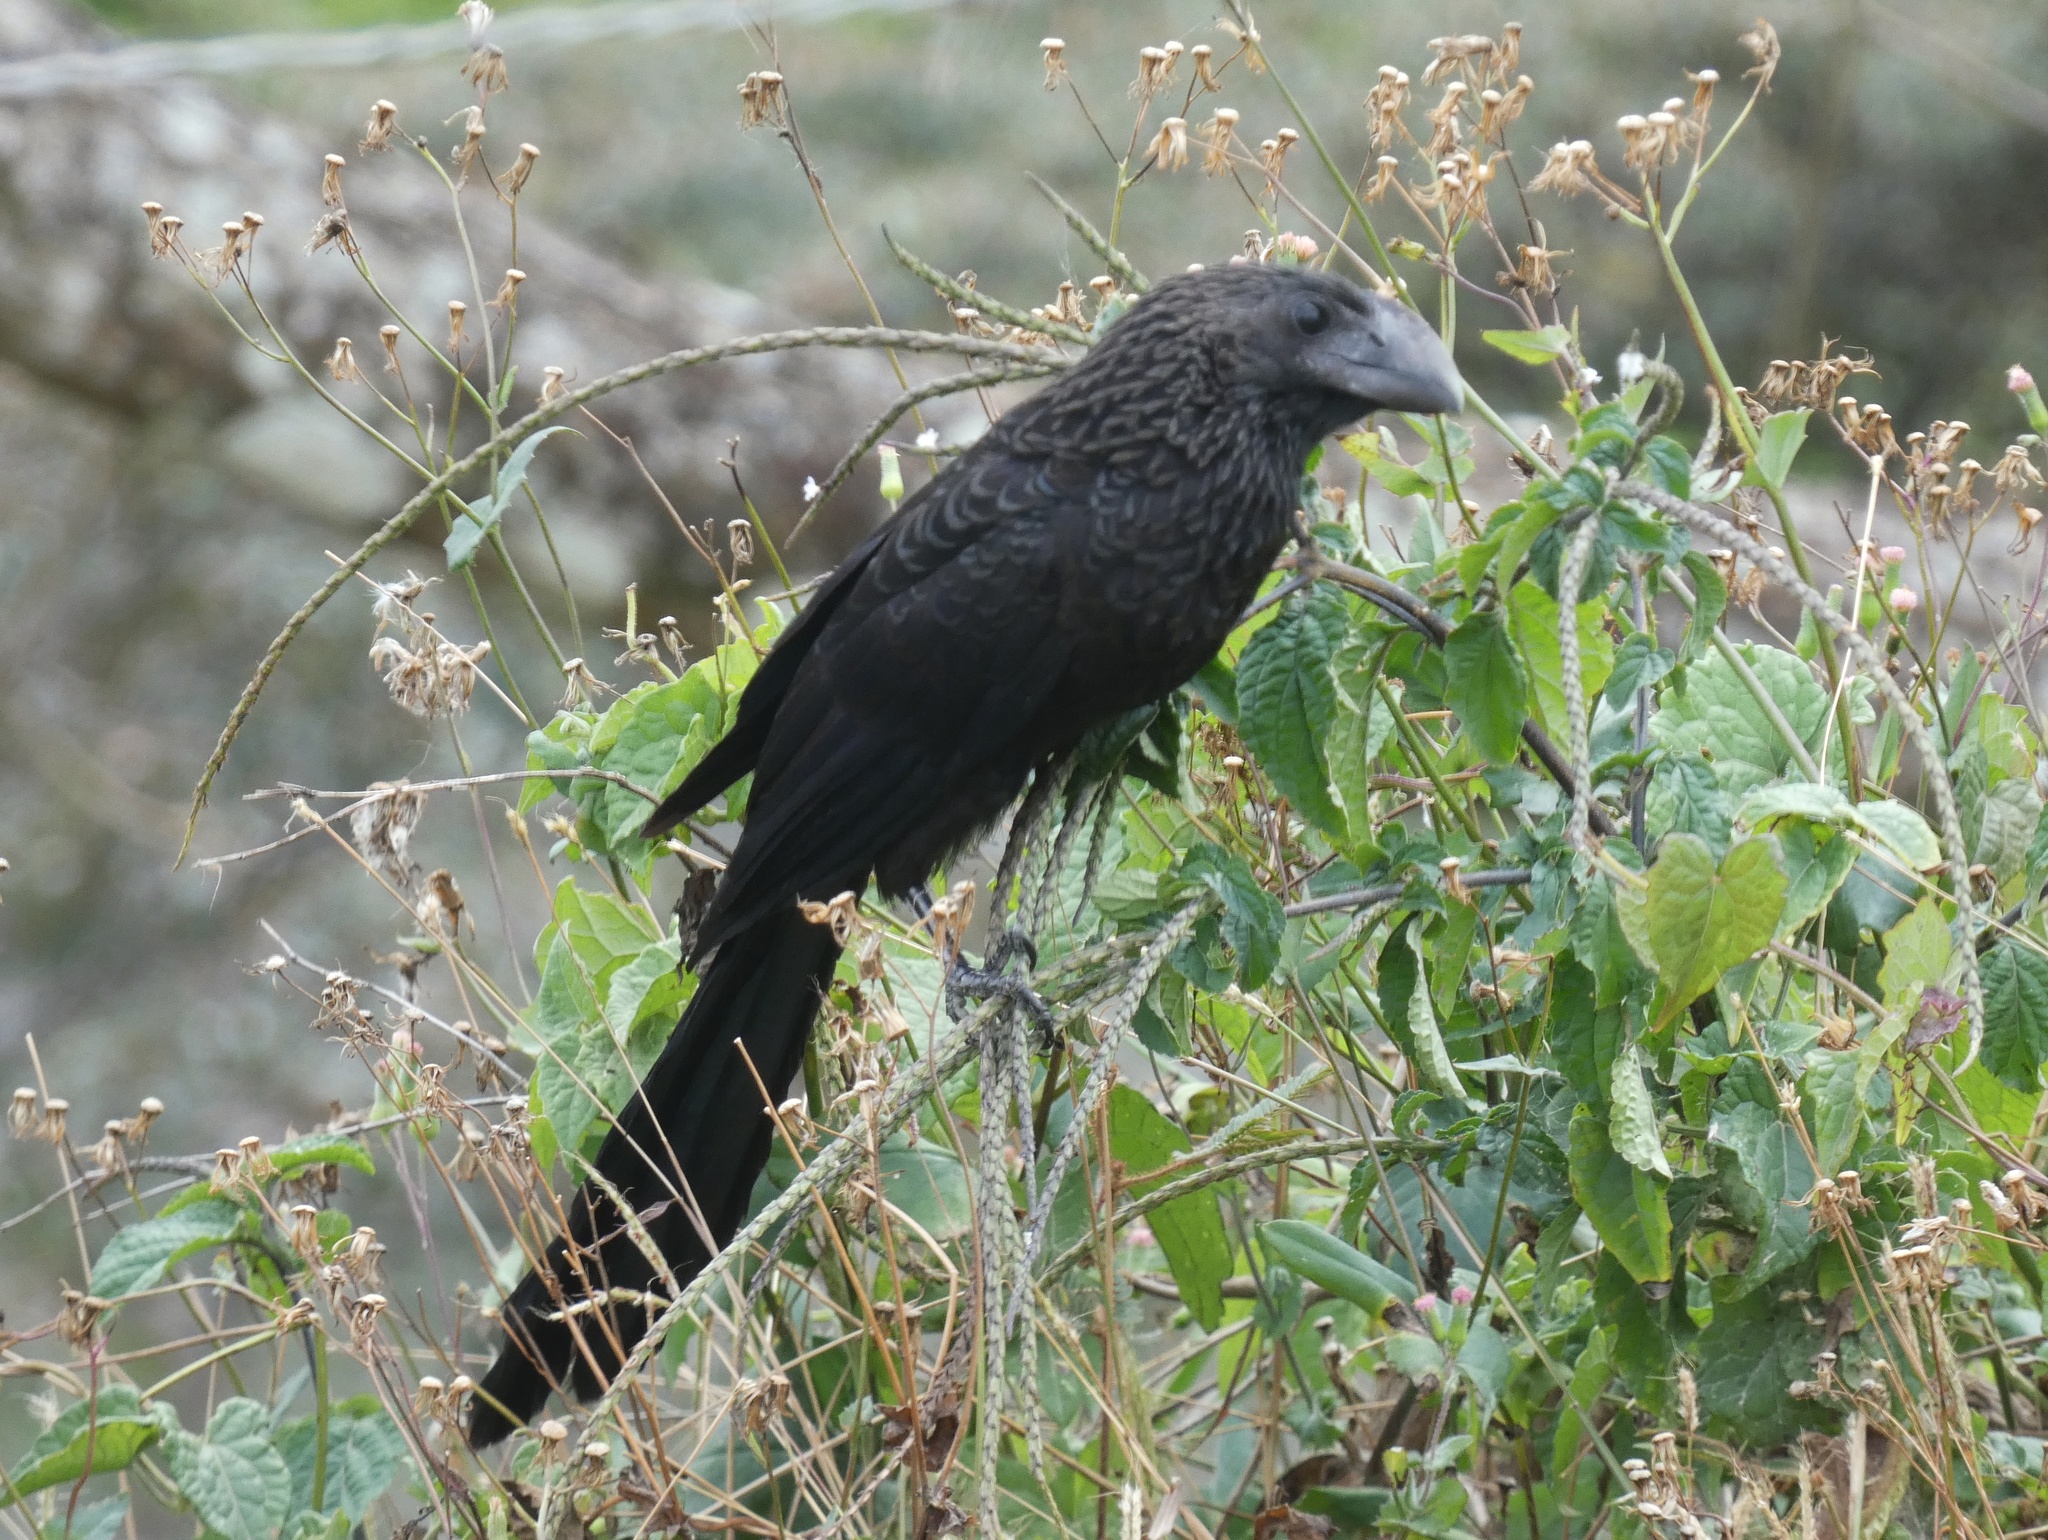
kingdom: Animalia
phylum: Chordata
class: Aves
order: Cuculiformes
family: Cuculidae
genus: Crotophaga
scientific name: Crotophaga ani
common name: Smooth-billed ani
